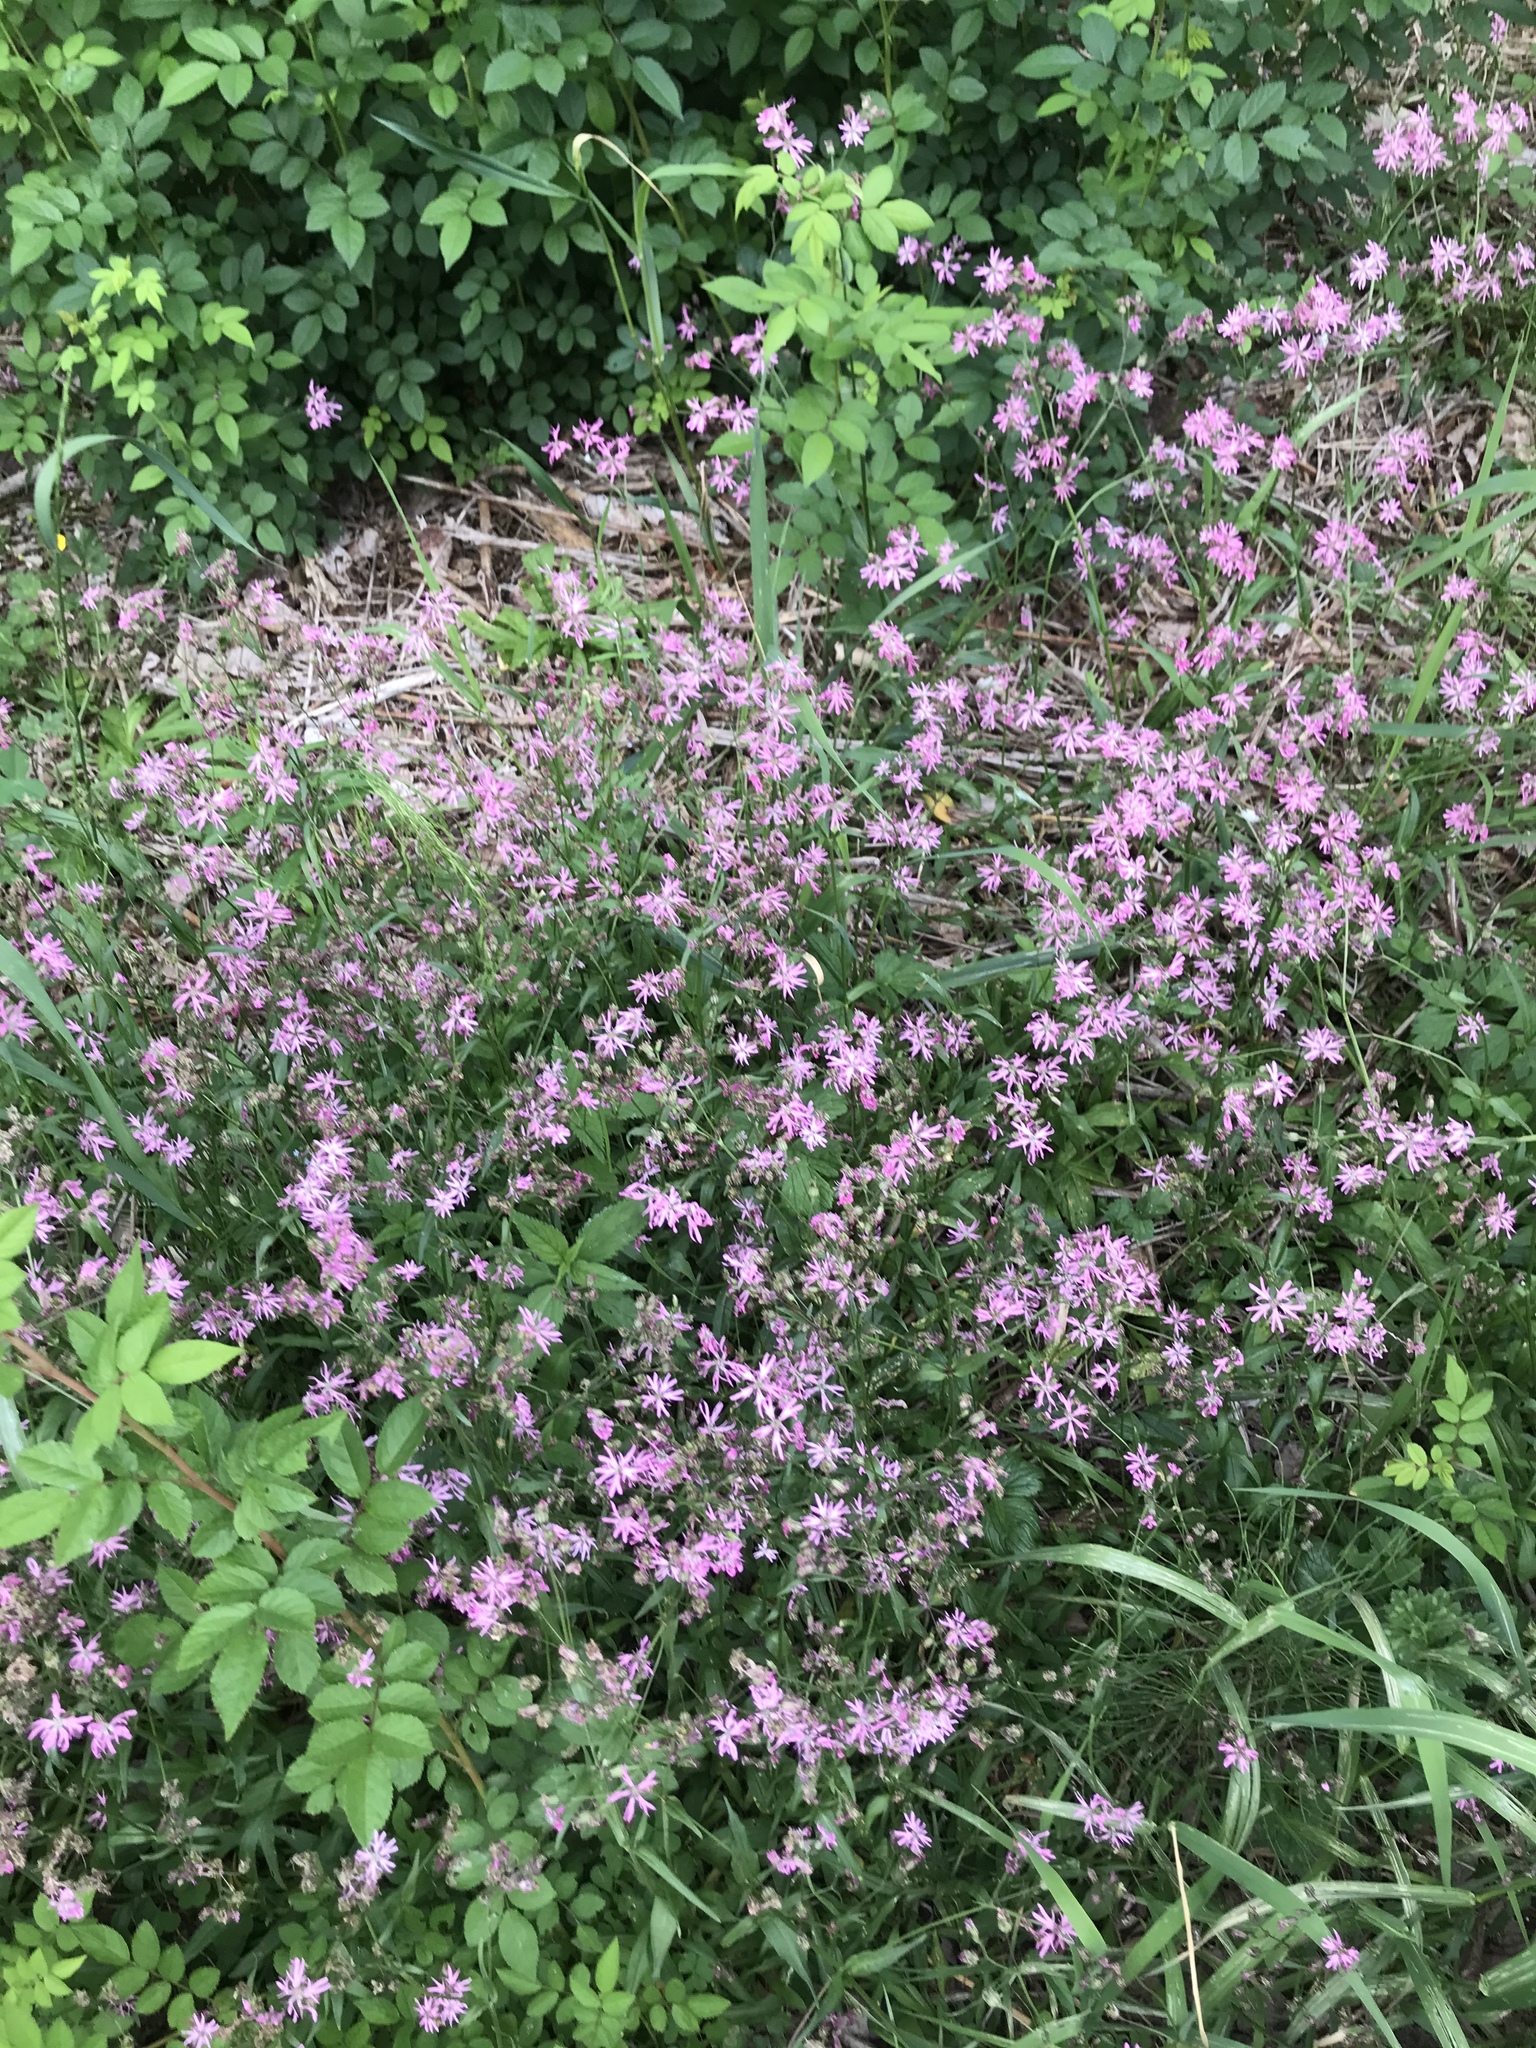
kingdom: Plantae
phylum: Tracheophyta
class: Magnoliopsida
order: Caryophyllales
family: Caryophyllaceae
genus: Silene
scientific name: Silene flos-cuculi
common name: Ragged-robin
